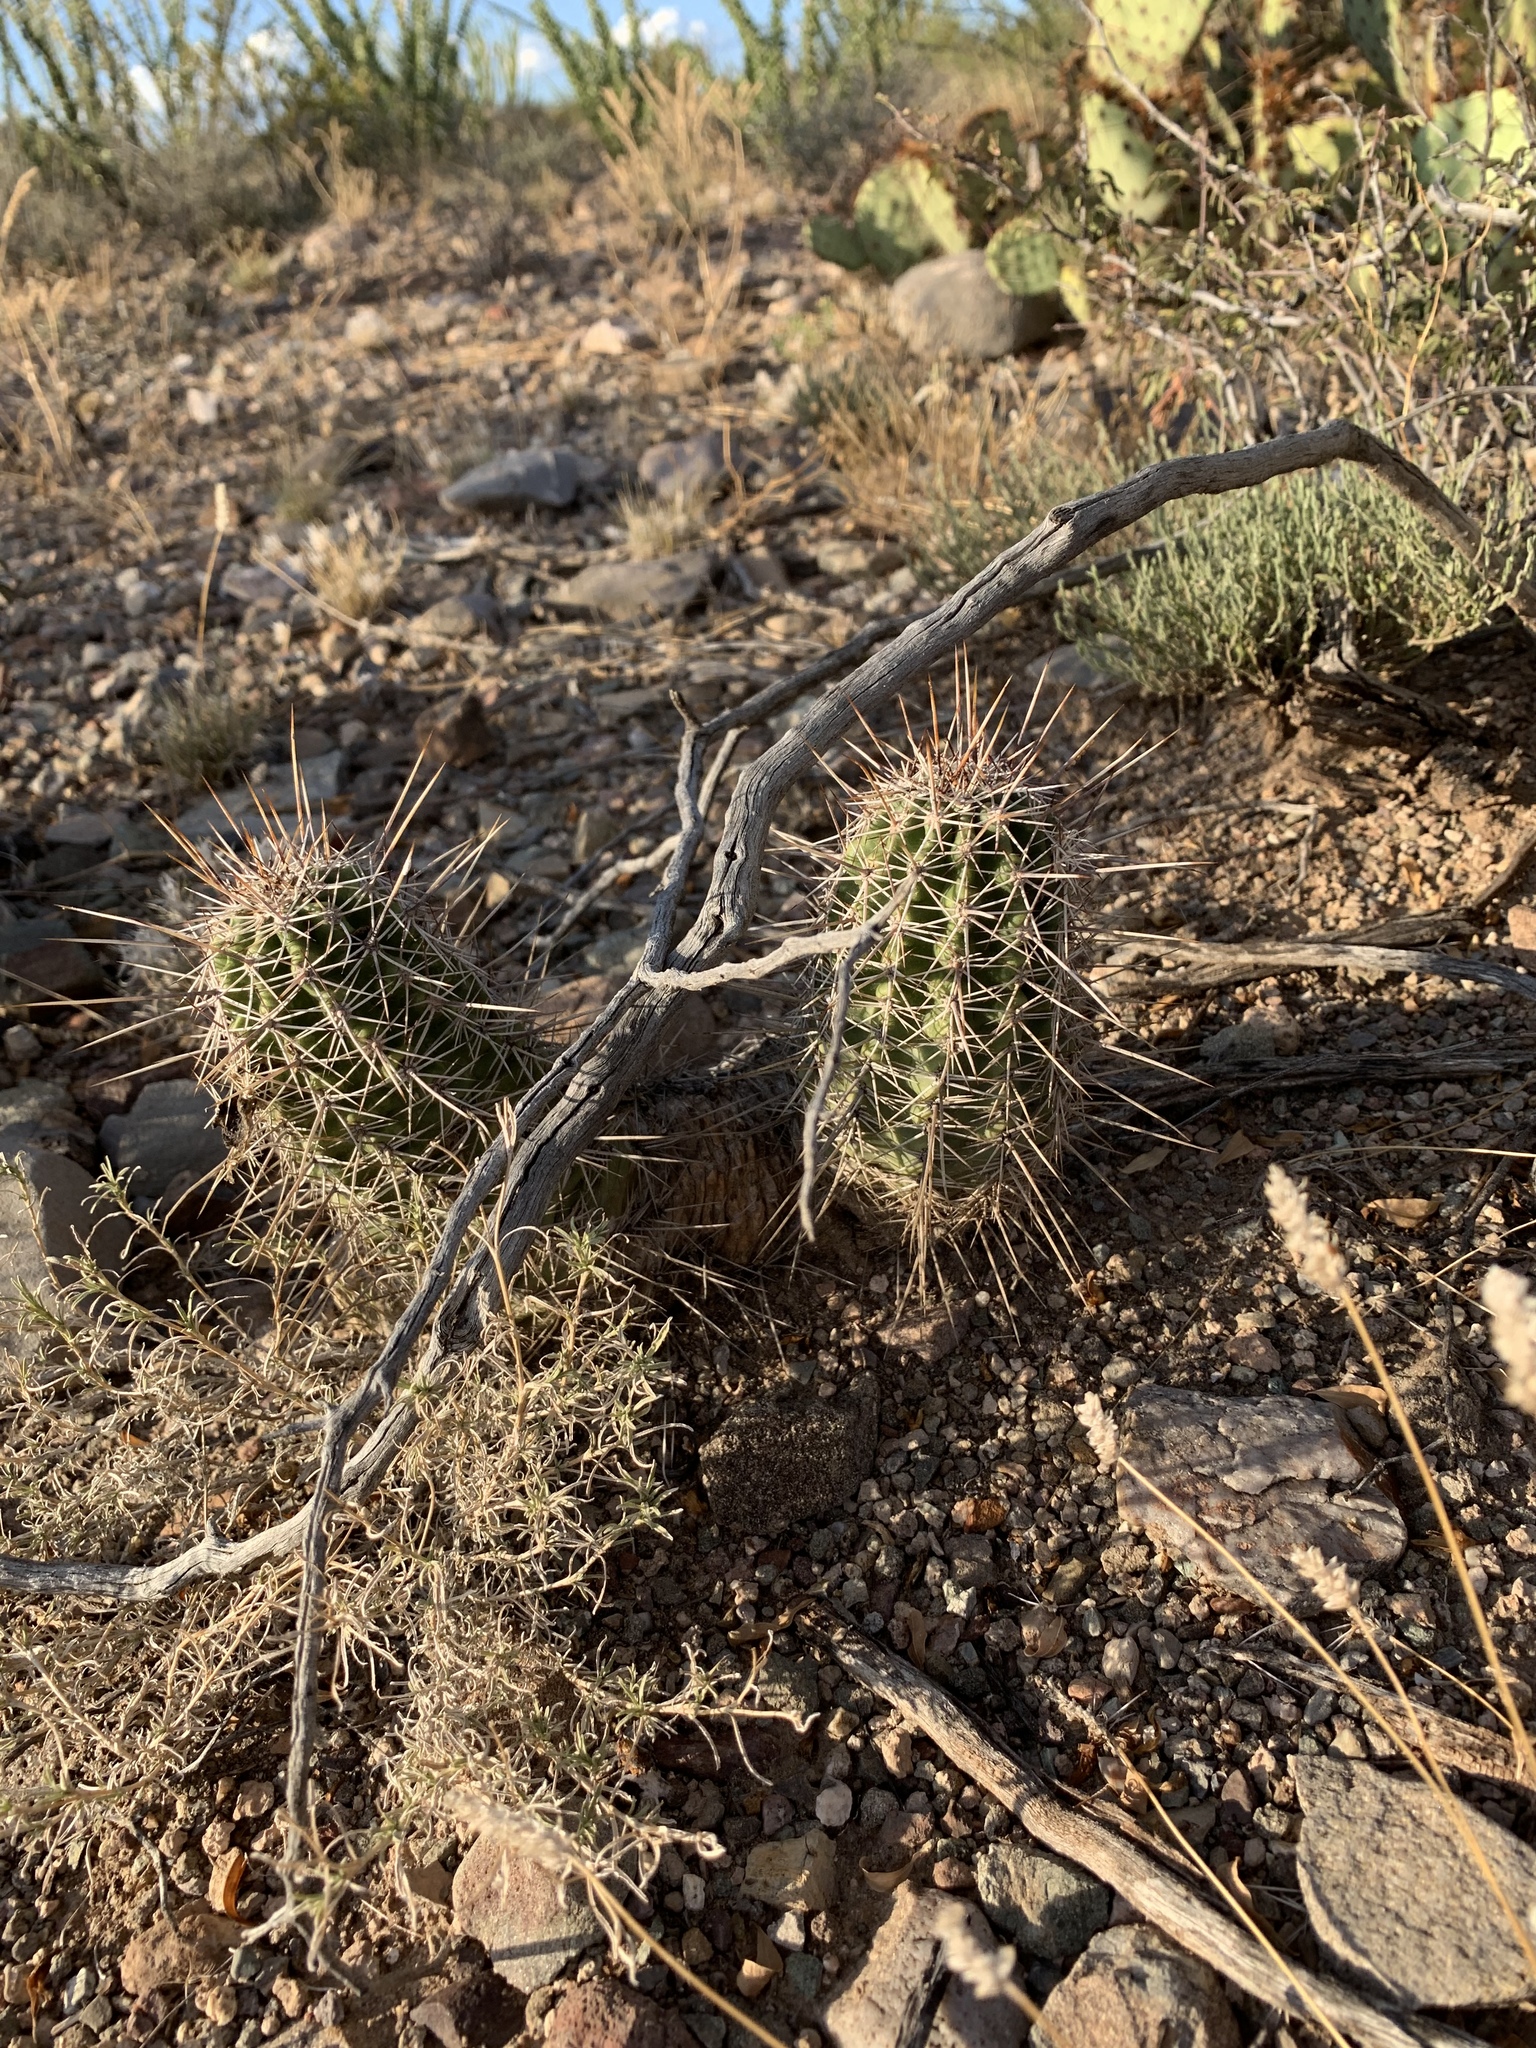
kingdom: Plantae
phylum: Tracheophyta
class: Magnoliopsida
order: Caryophyllales
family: Cactaceae
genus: Echinocereus
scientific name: Echinocereus fasciculatus
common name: Bundle hedgehog
